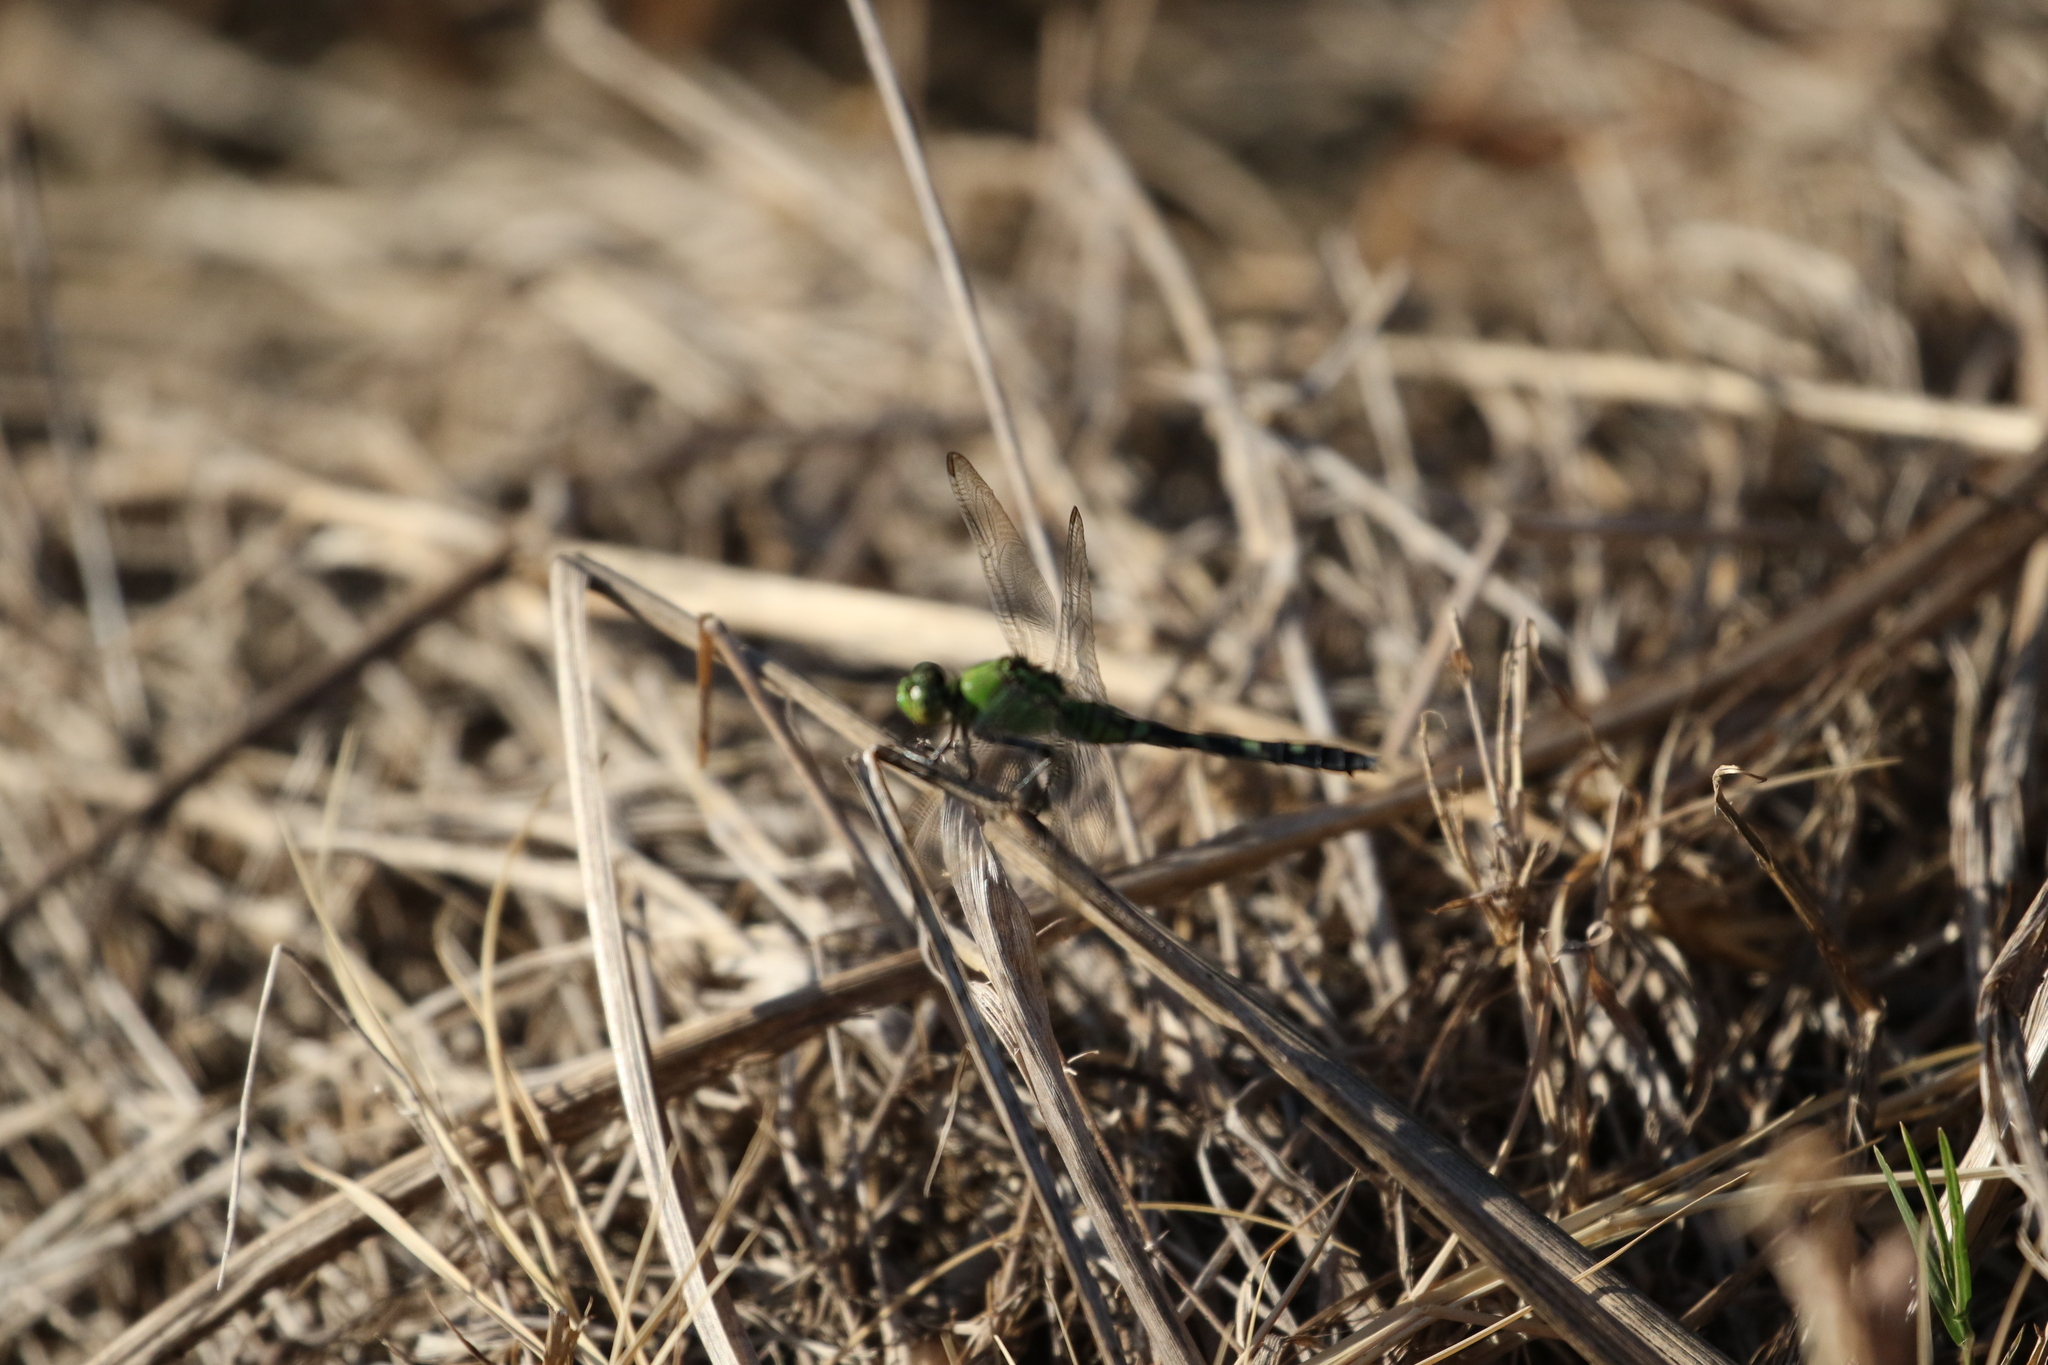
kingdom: Animalia
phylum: Arthropoda
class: Insecta
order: Odonata
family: Libellulidae
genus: Erythemis
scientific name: Erythemis simplicicollis
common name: Eastern pondhawk
